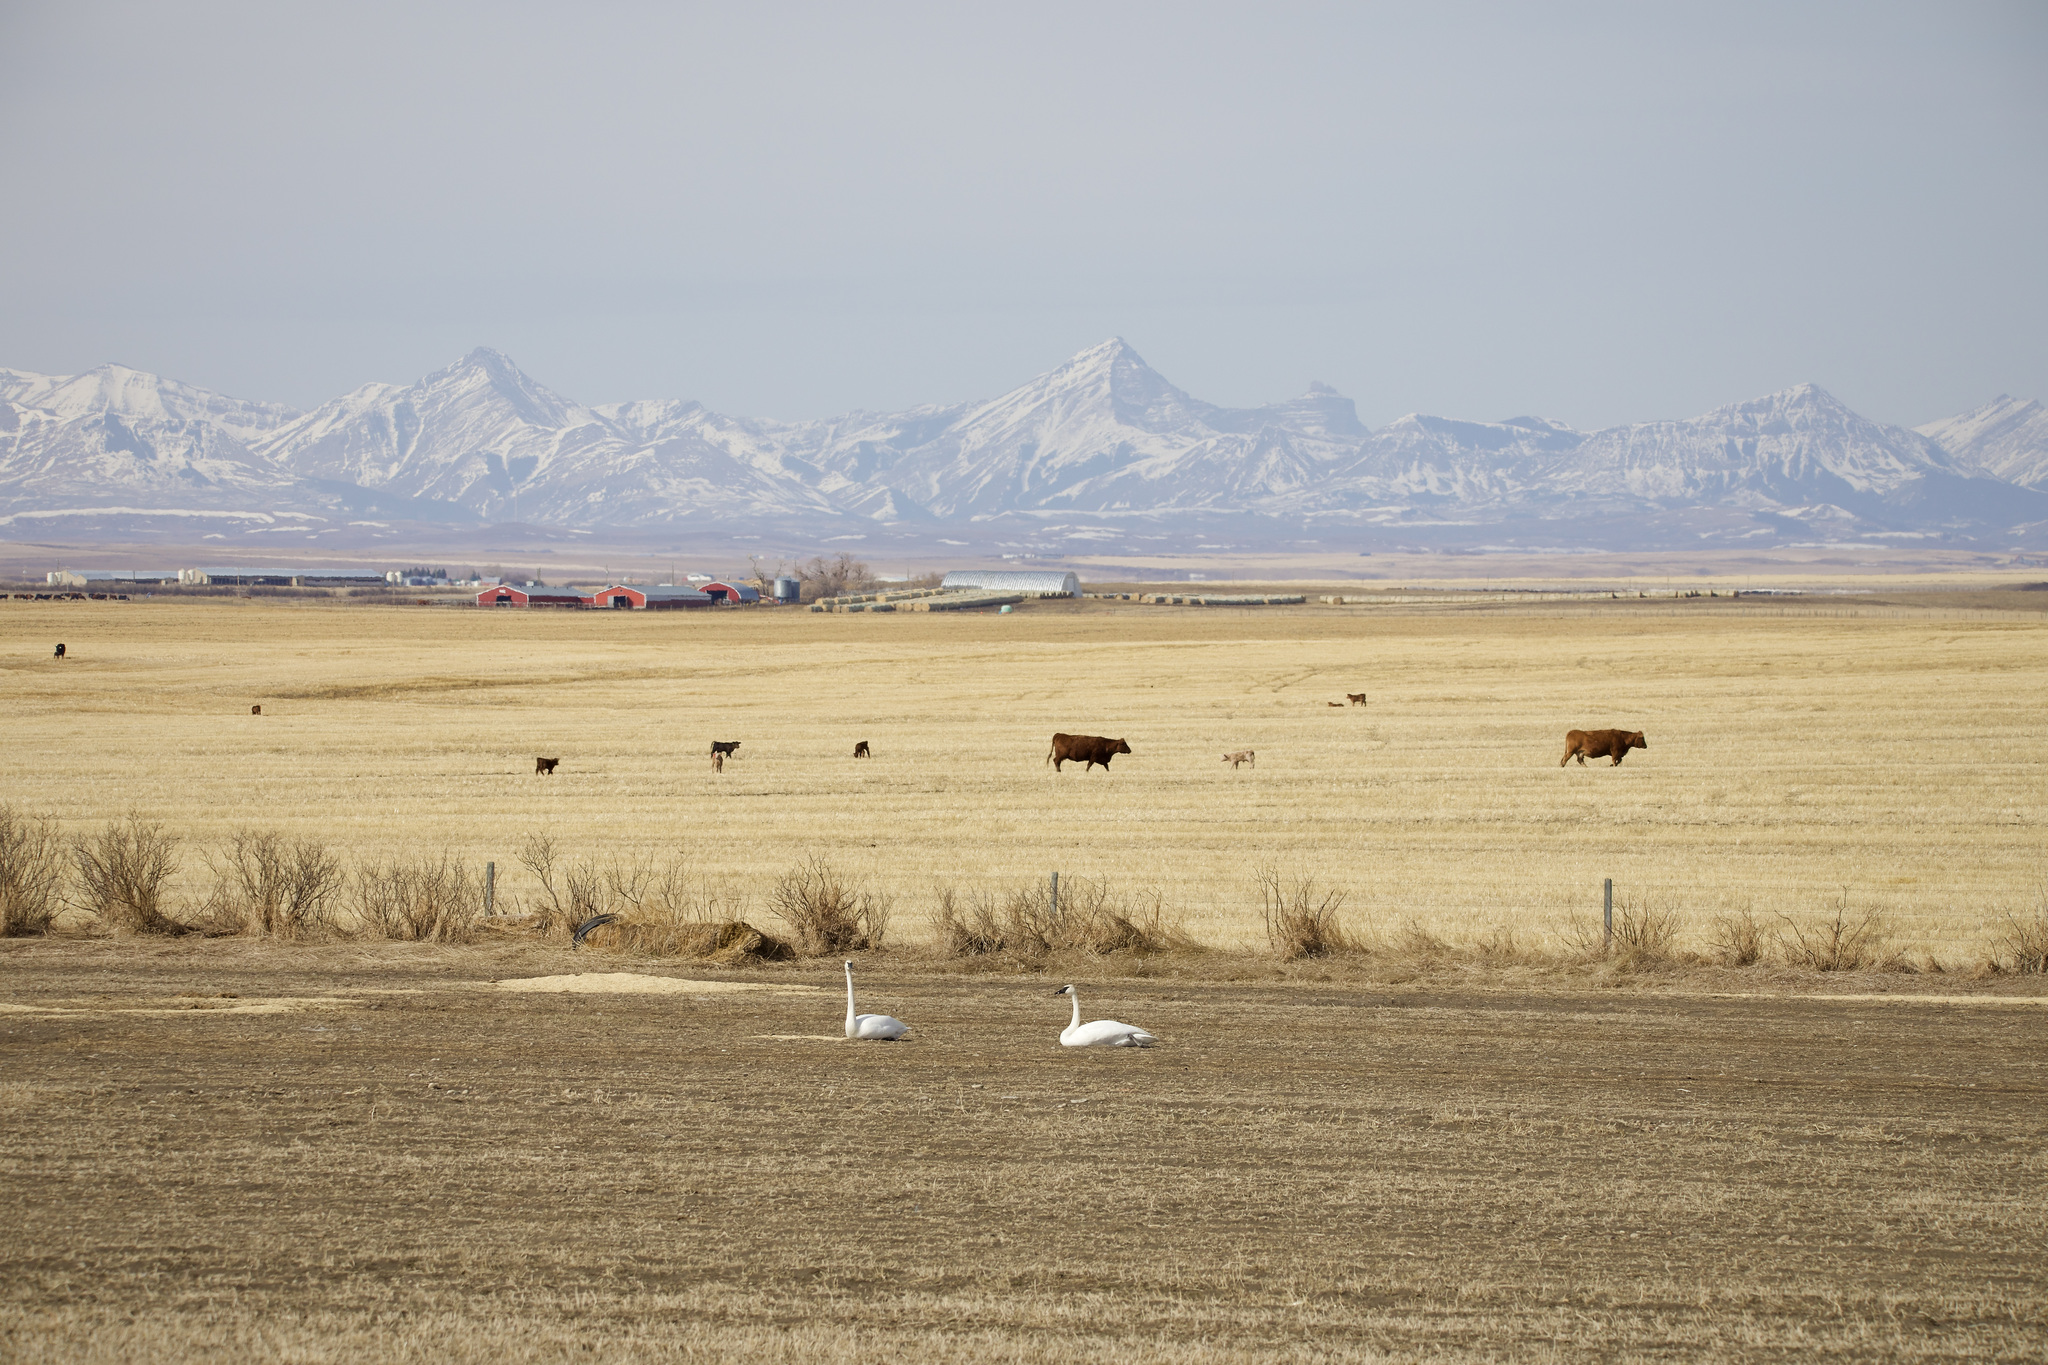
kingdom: Animalia
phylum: Chordata
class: Aves
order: Anseriformes
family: Anatidae
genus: Cygnus
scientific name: Cygnus buccinator
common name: Trumpeter swan
